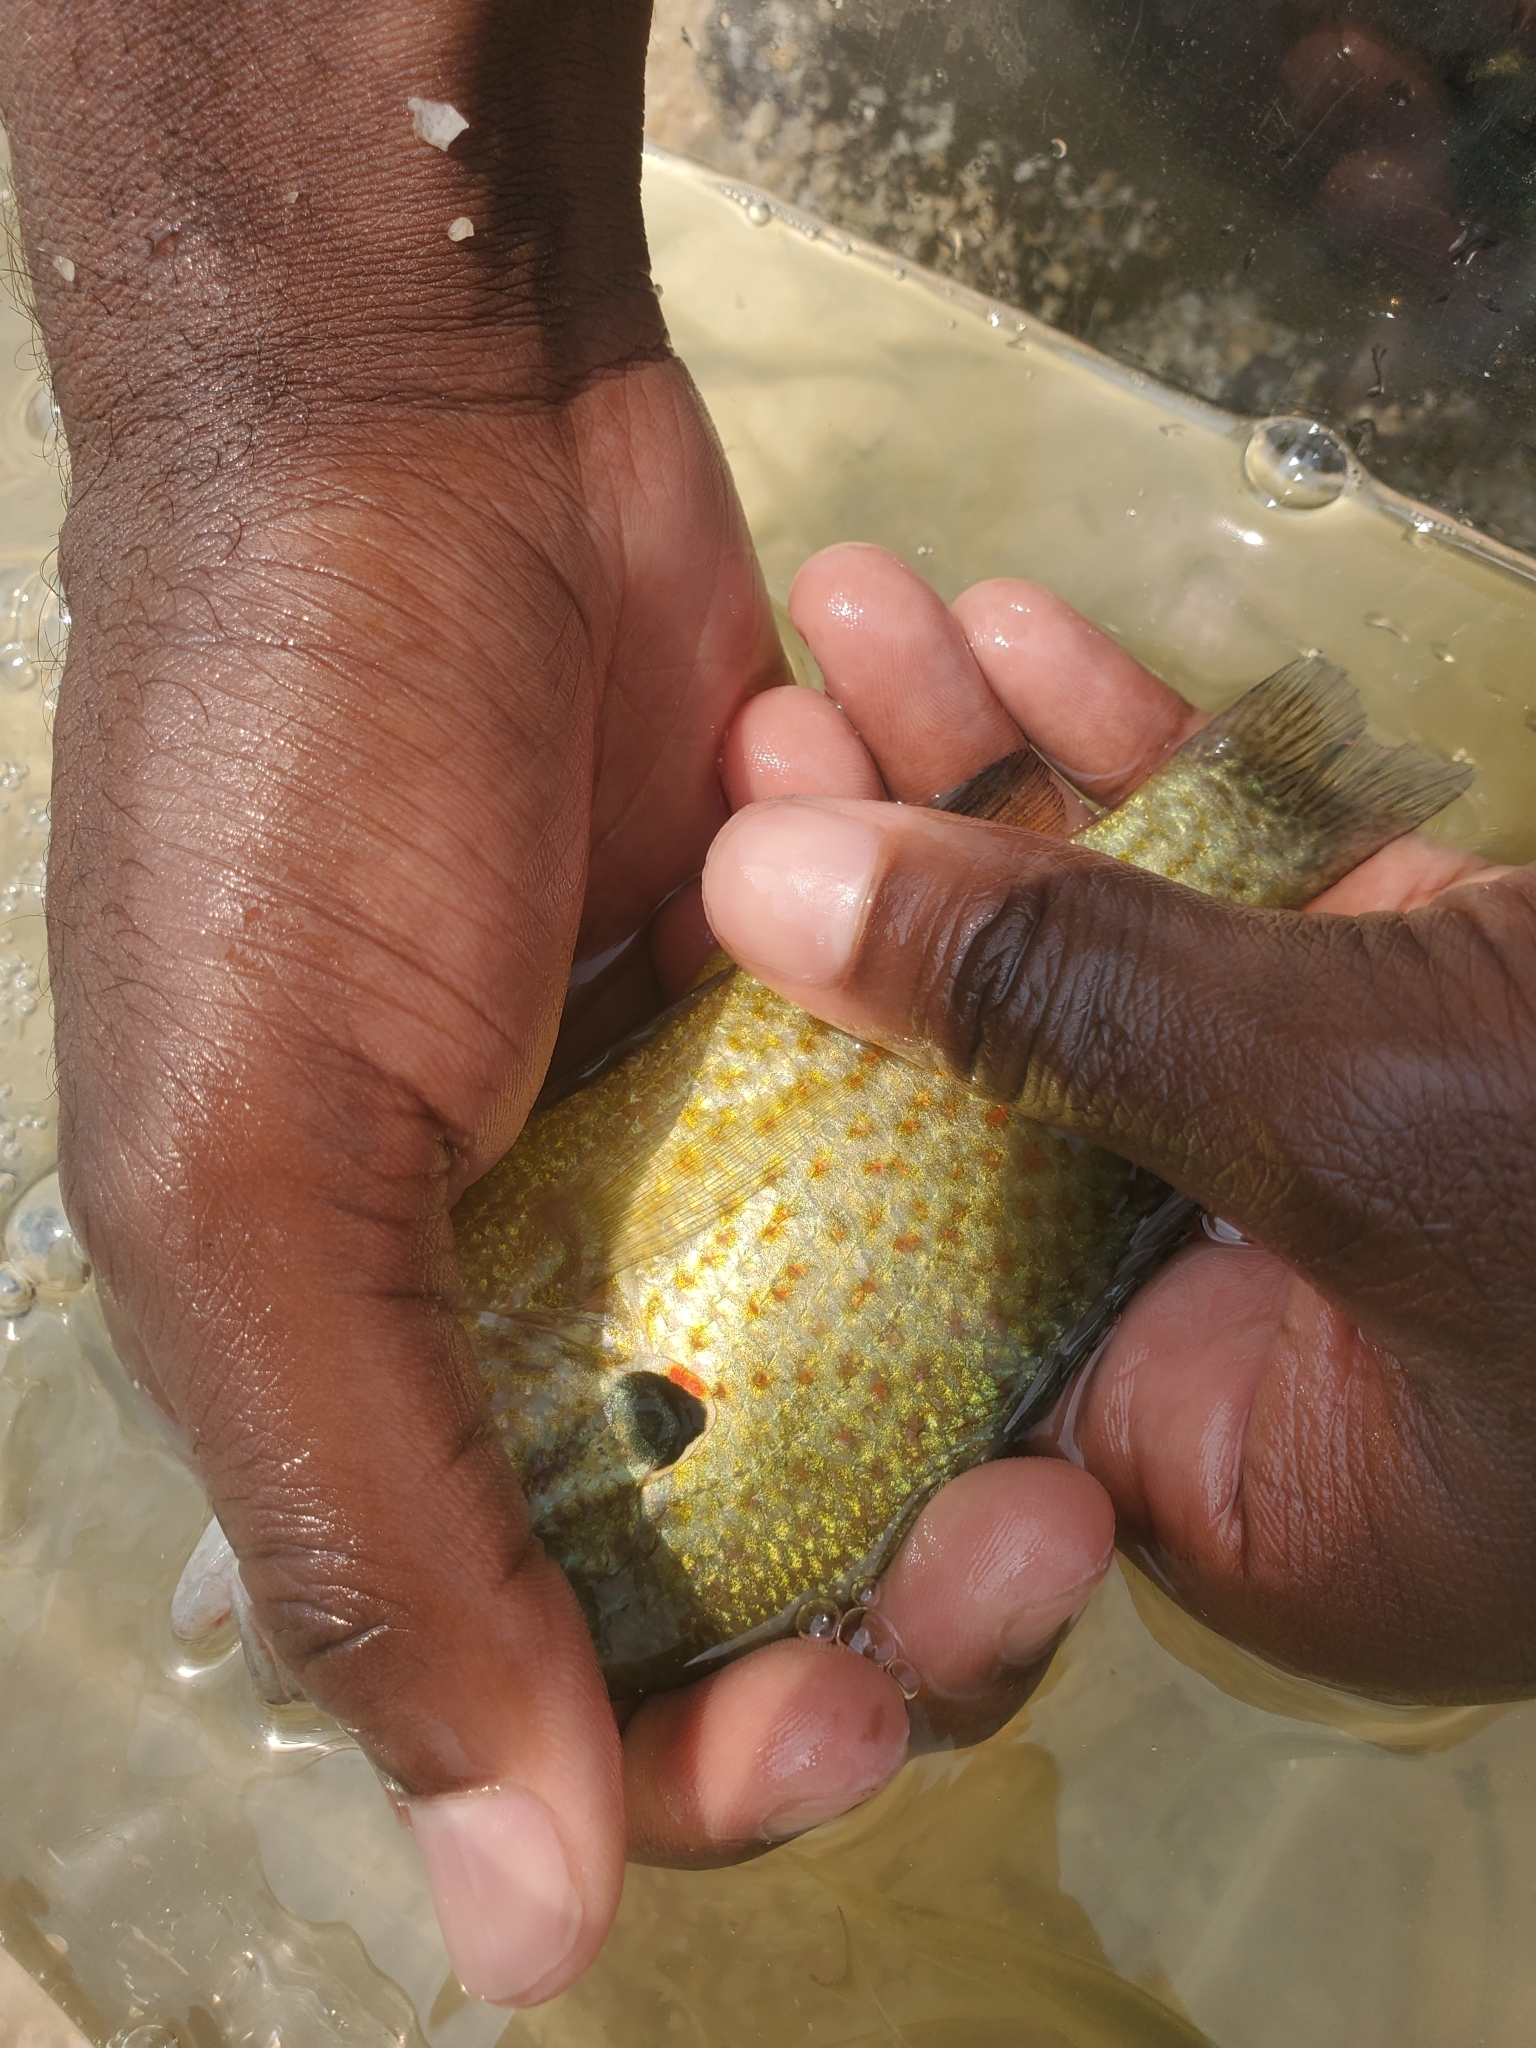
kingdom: Animalia
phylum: Chordata
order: Perciformes
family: Centrarchidae
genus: Lepomis
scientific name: Lepomis gibbosus
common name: Pumpkinseed
